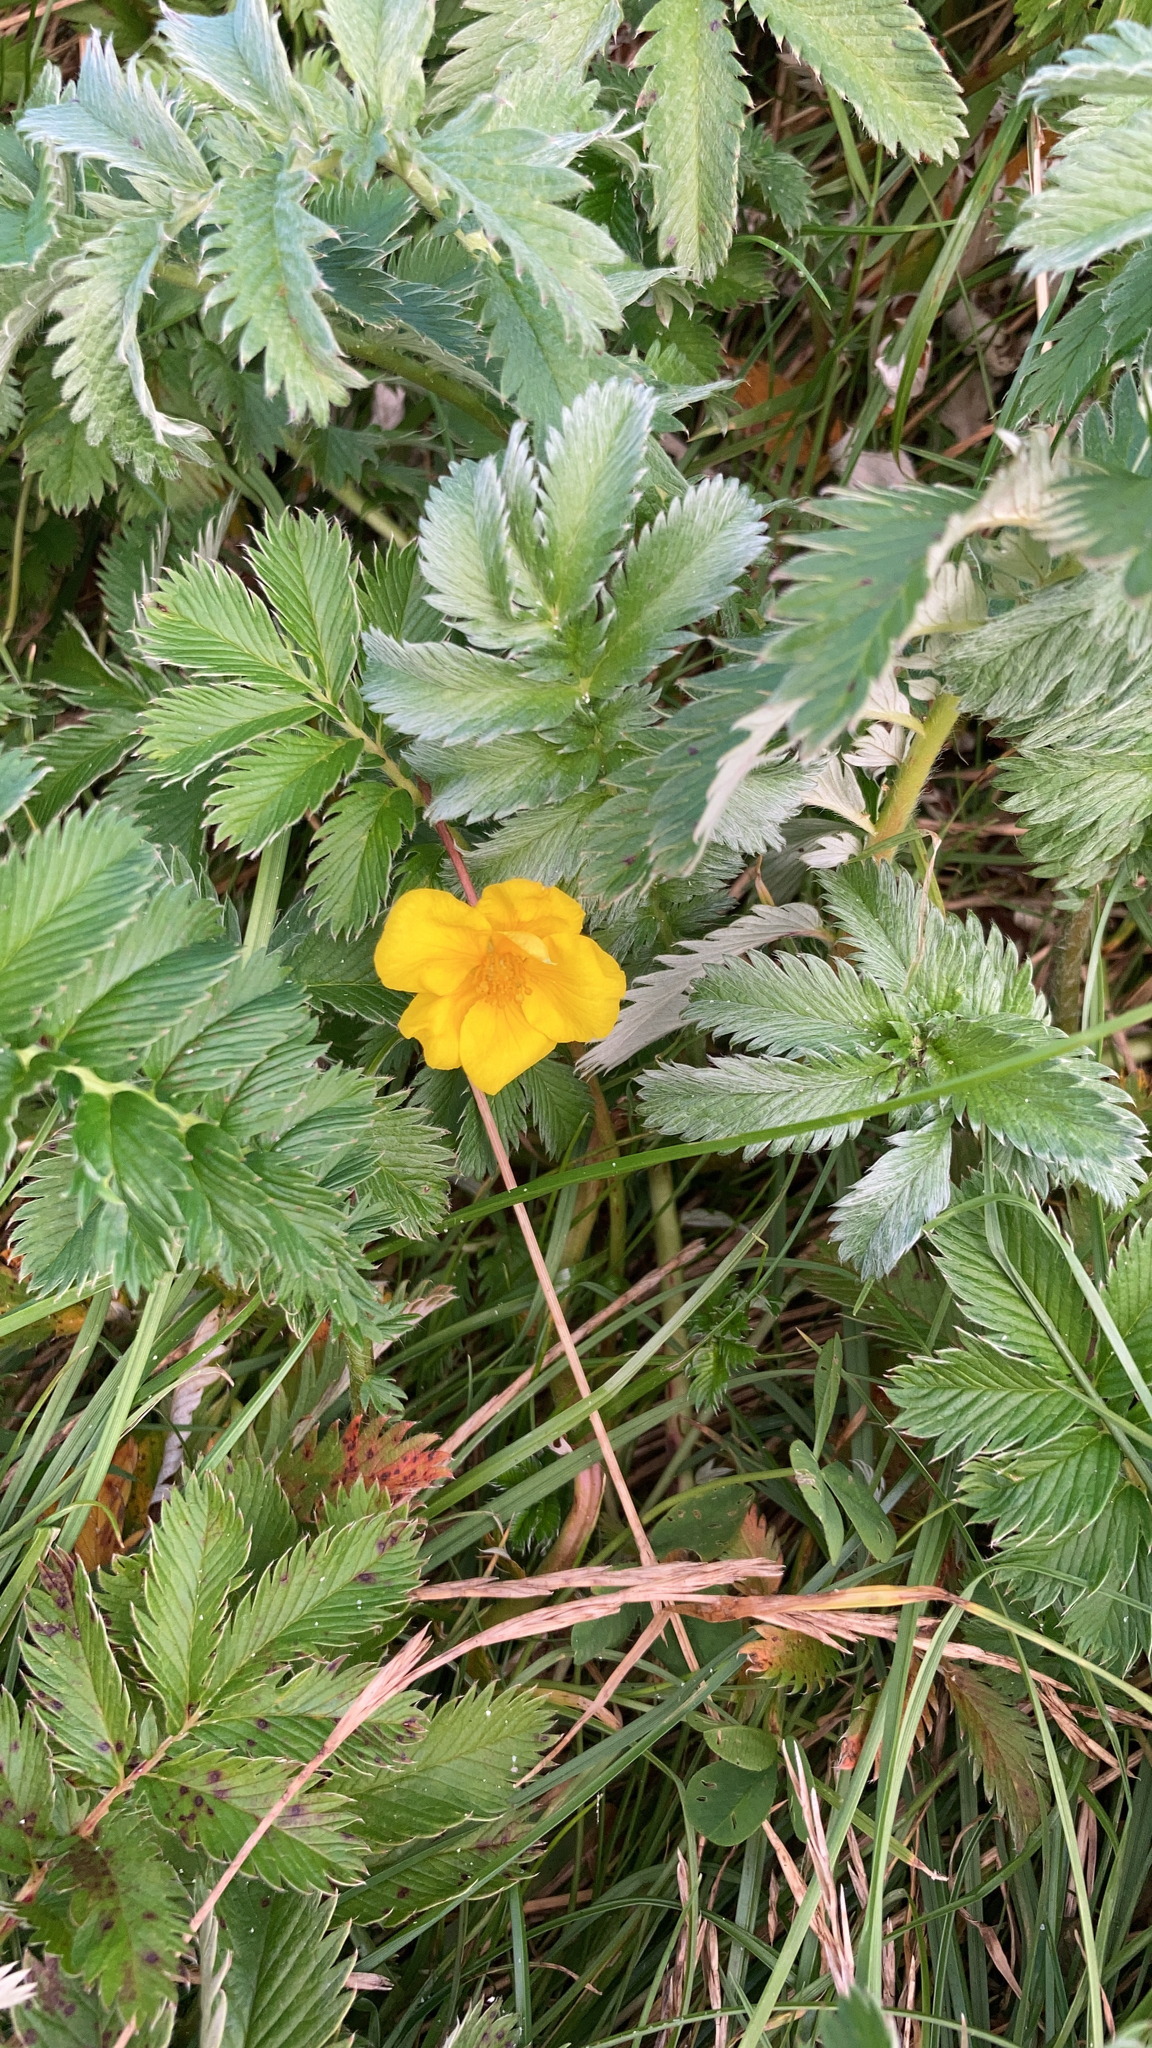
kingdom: Plantae
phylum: Tracheophyta
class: Magnoliopsida
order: Rosales
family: Rosaceae
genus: Argentina
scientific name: Argentina anserina
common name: Common silverweed
